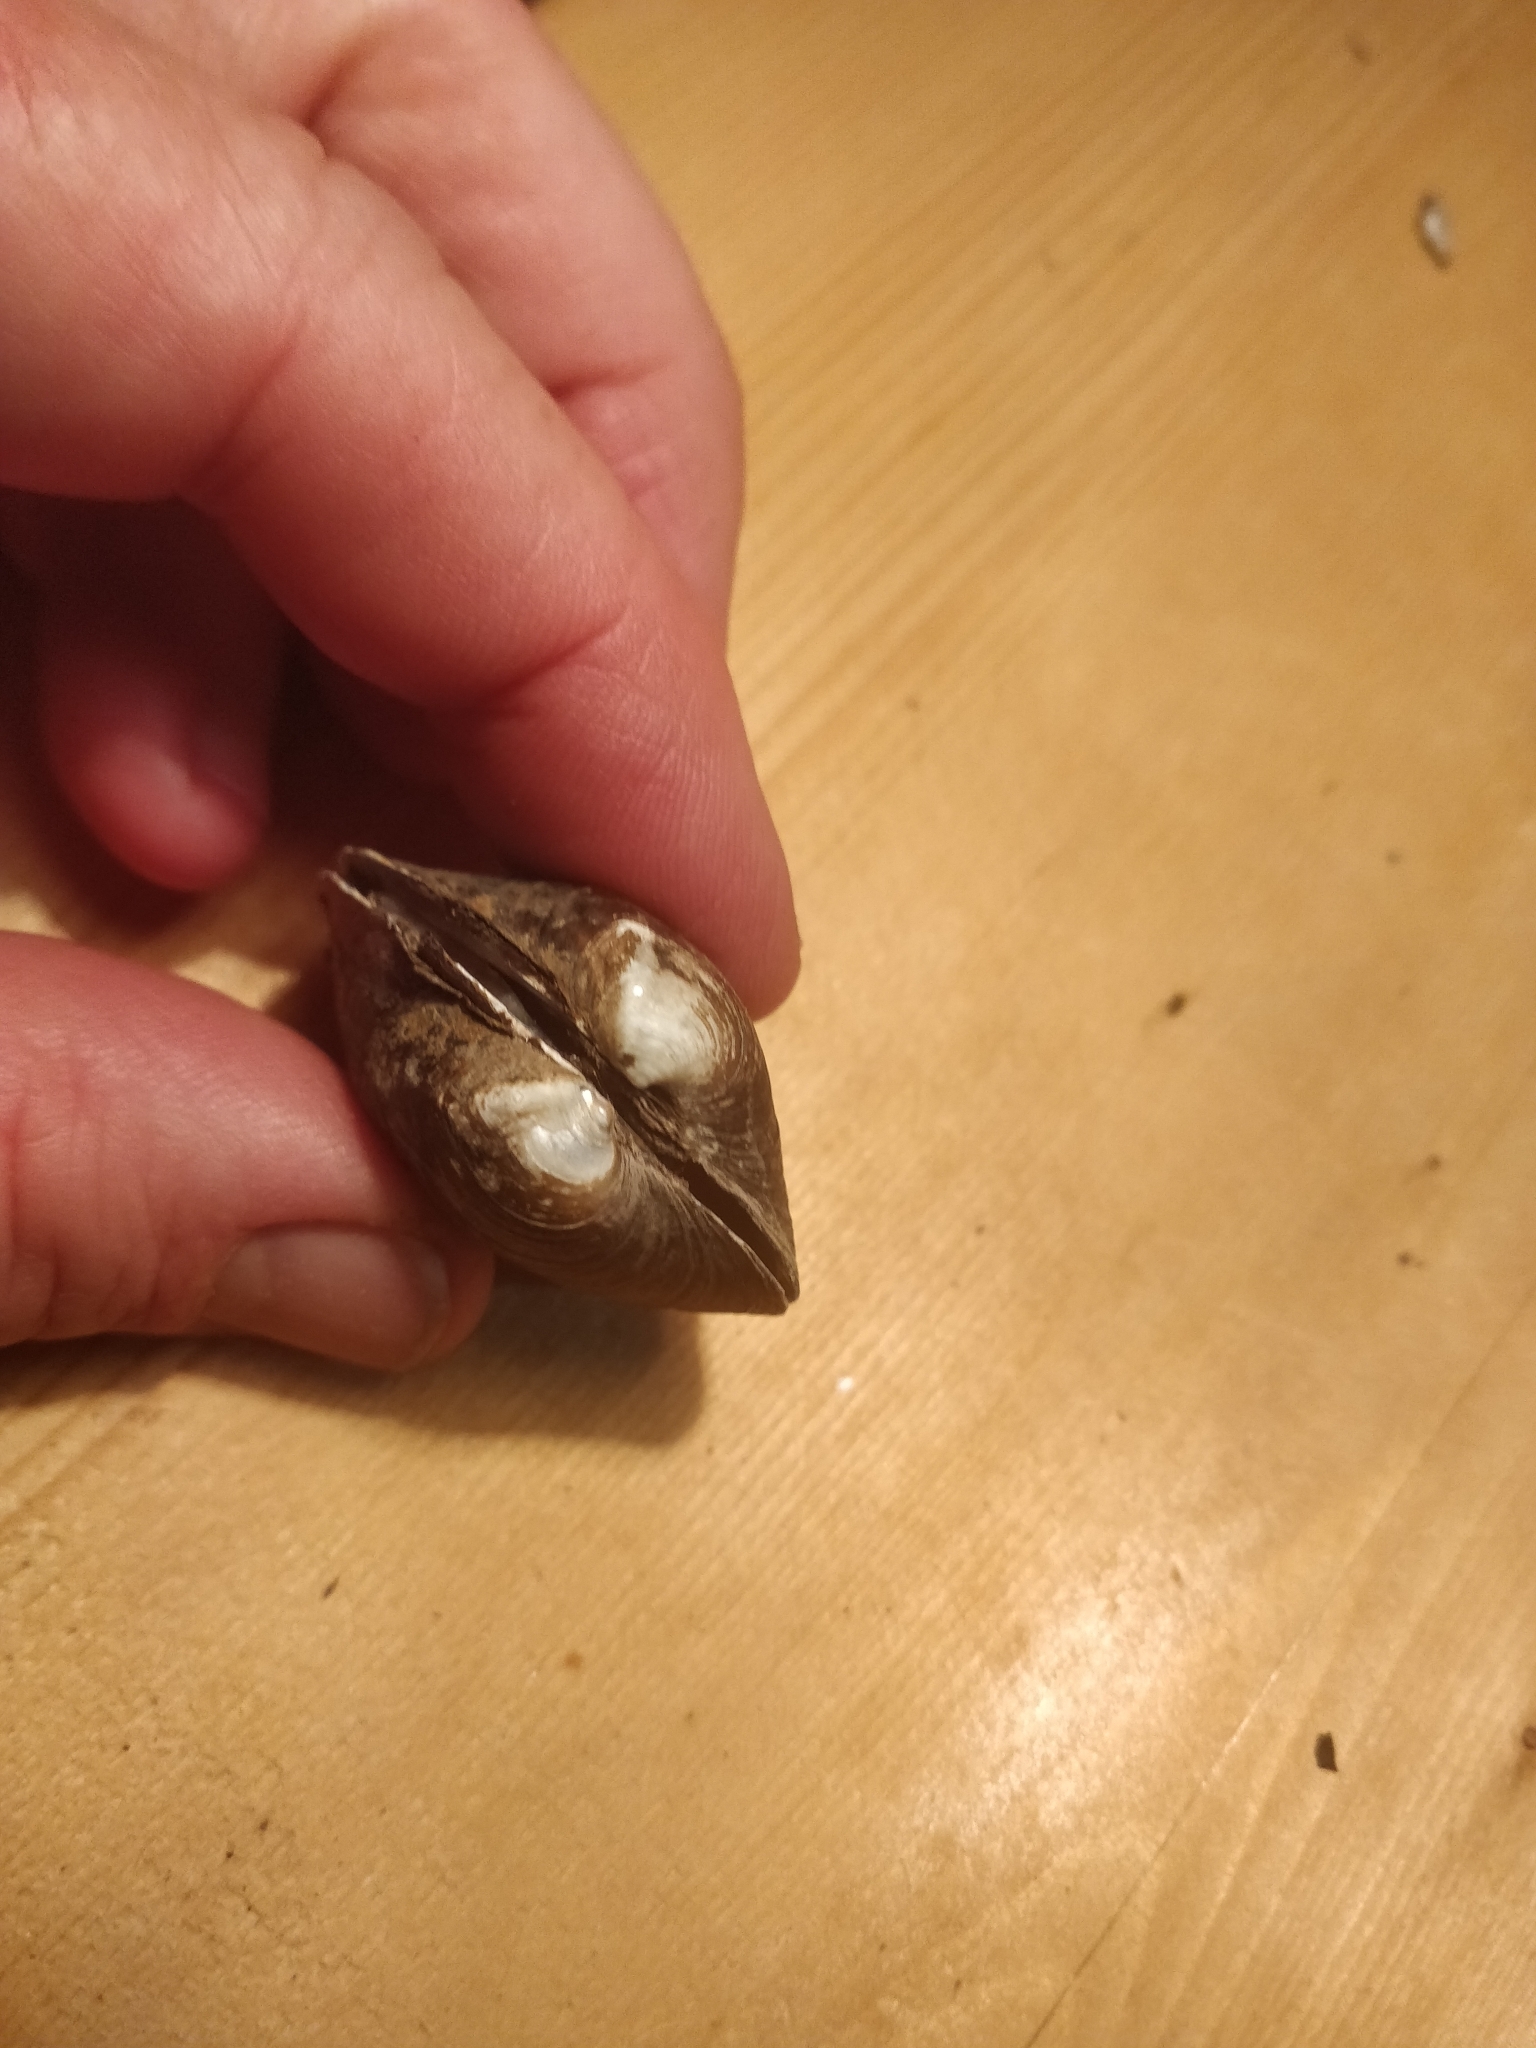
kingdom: Animalia
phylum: Mollusca
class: Bivalvia
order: Unionida
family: Unionidae
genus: Cyclonaias
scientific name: Cyclonaias pustulosa
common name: Pimpleback
